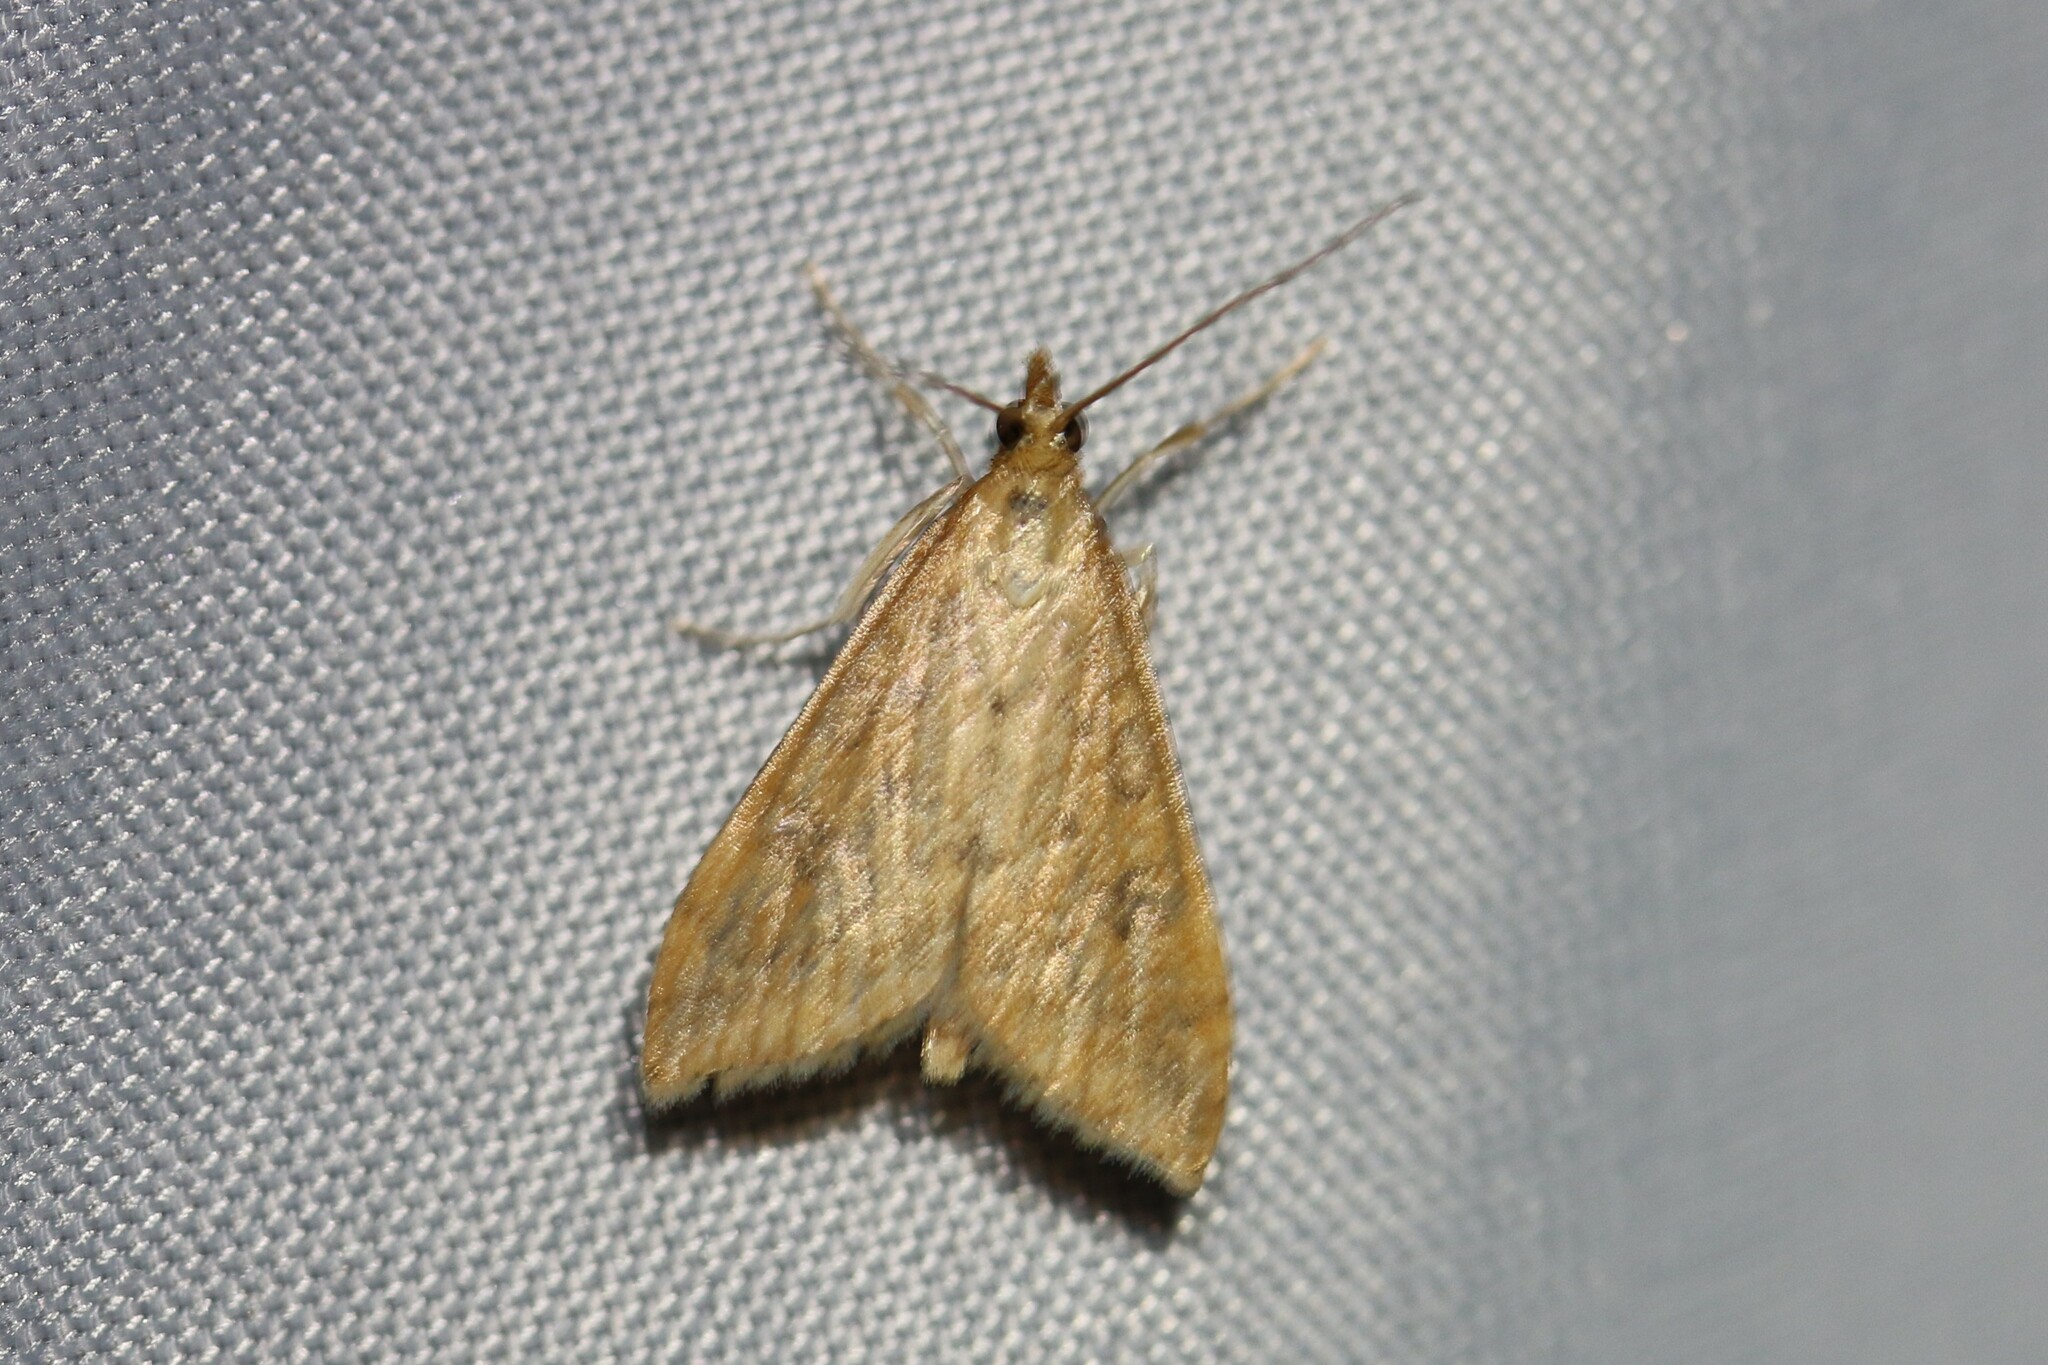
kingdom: Animalia
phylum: Arthropoda
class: Insecta
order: Lepidoptera
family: Crambidae
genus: Udea
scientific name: Udea ferrugalis
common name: Rusty dot
